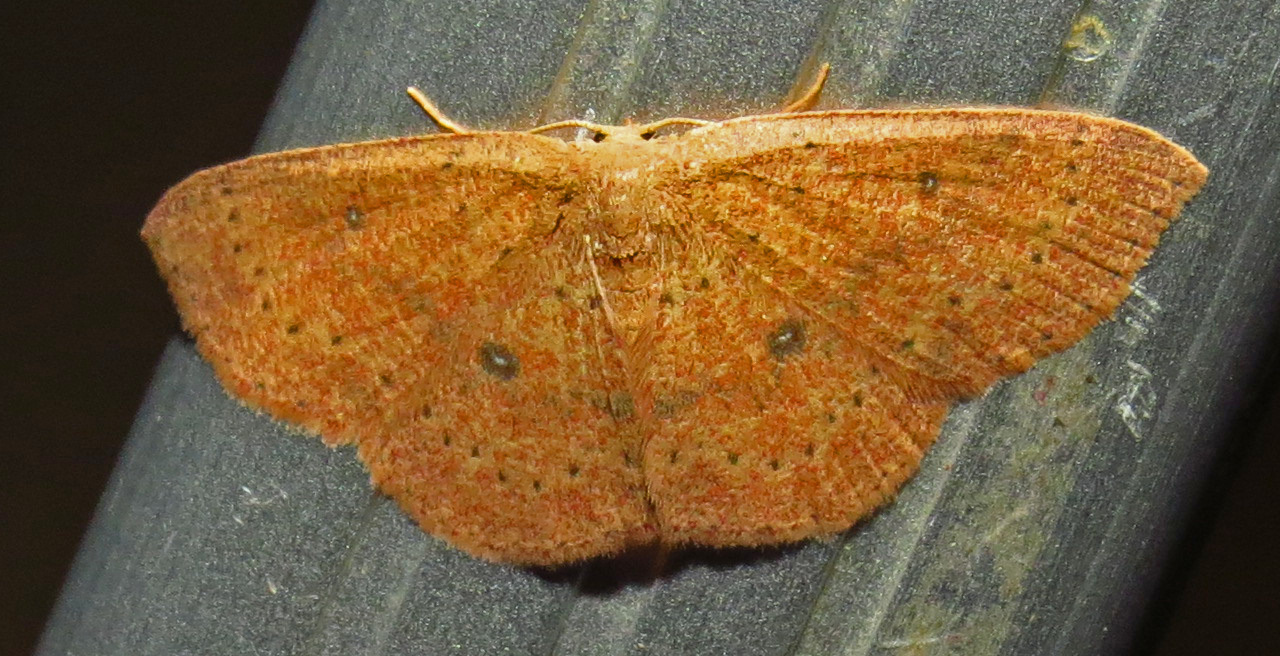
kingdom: Animalia
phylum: Arthropoda
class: Insecta
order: Lepidoptera
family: Geometridae
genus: Cyclophora
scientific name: Cyclophora packardi
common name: Packard's wave
